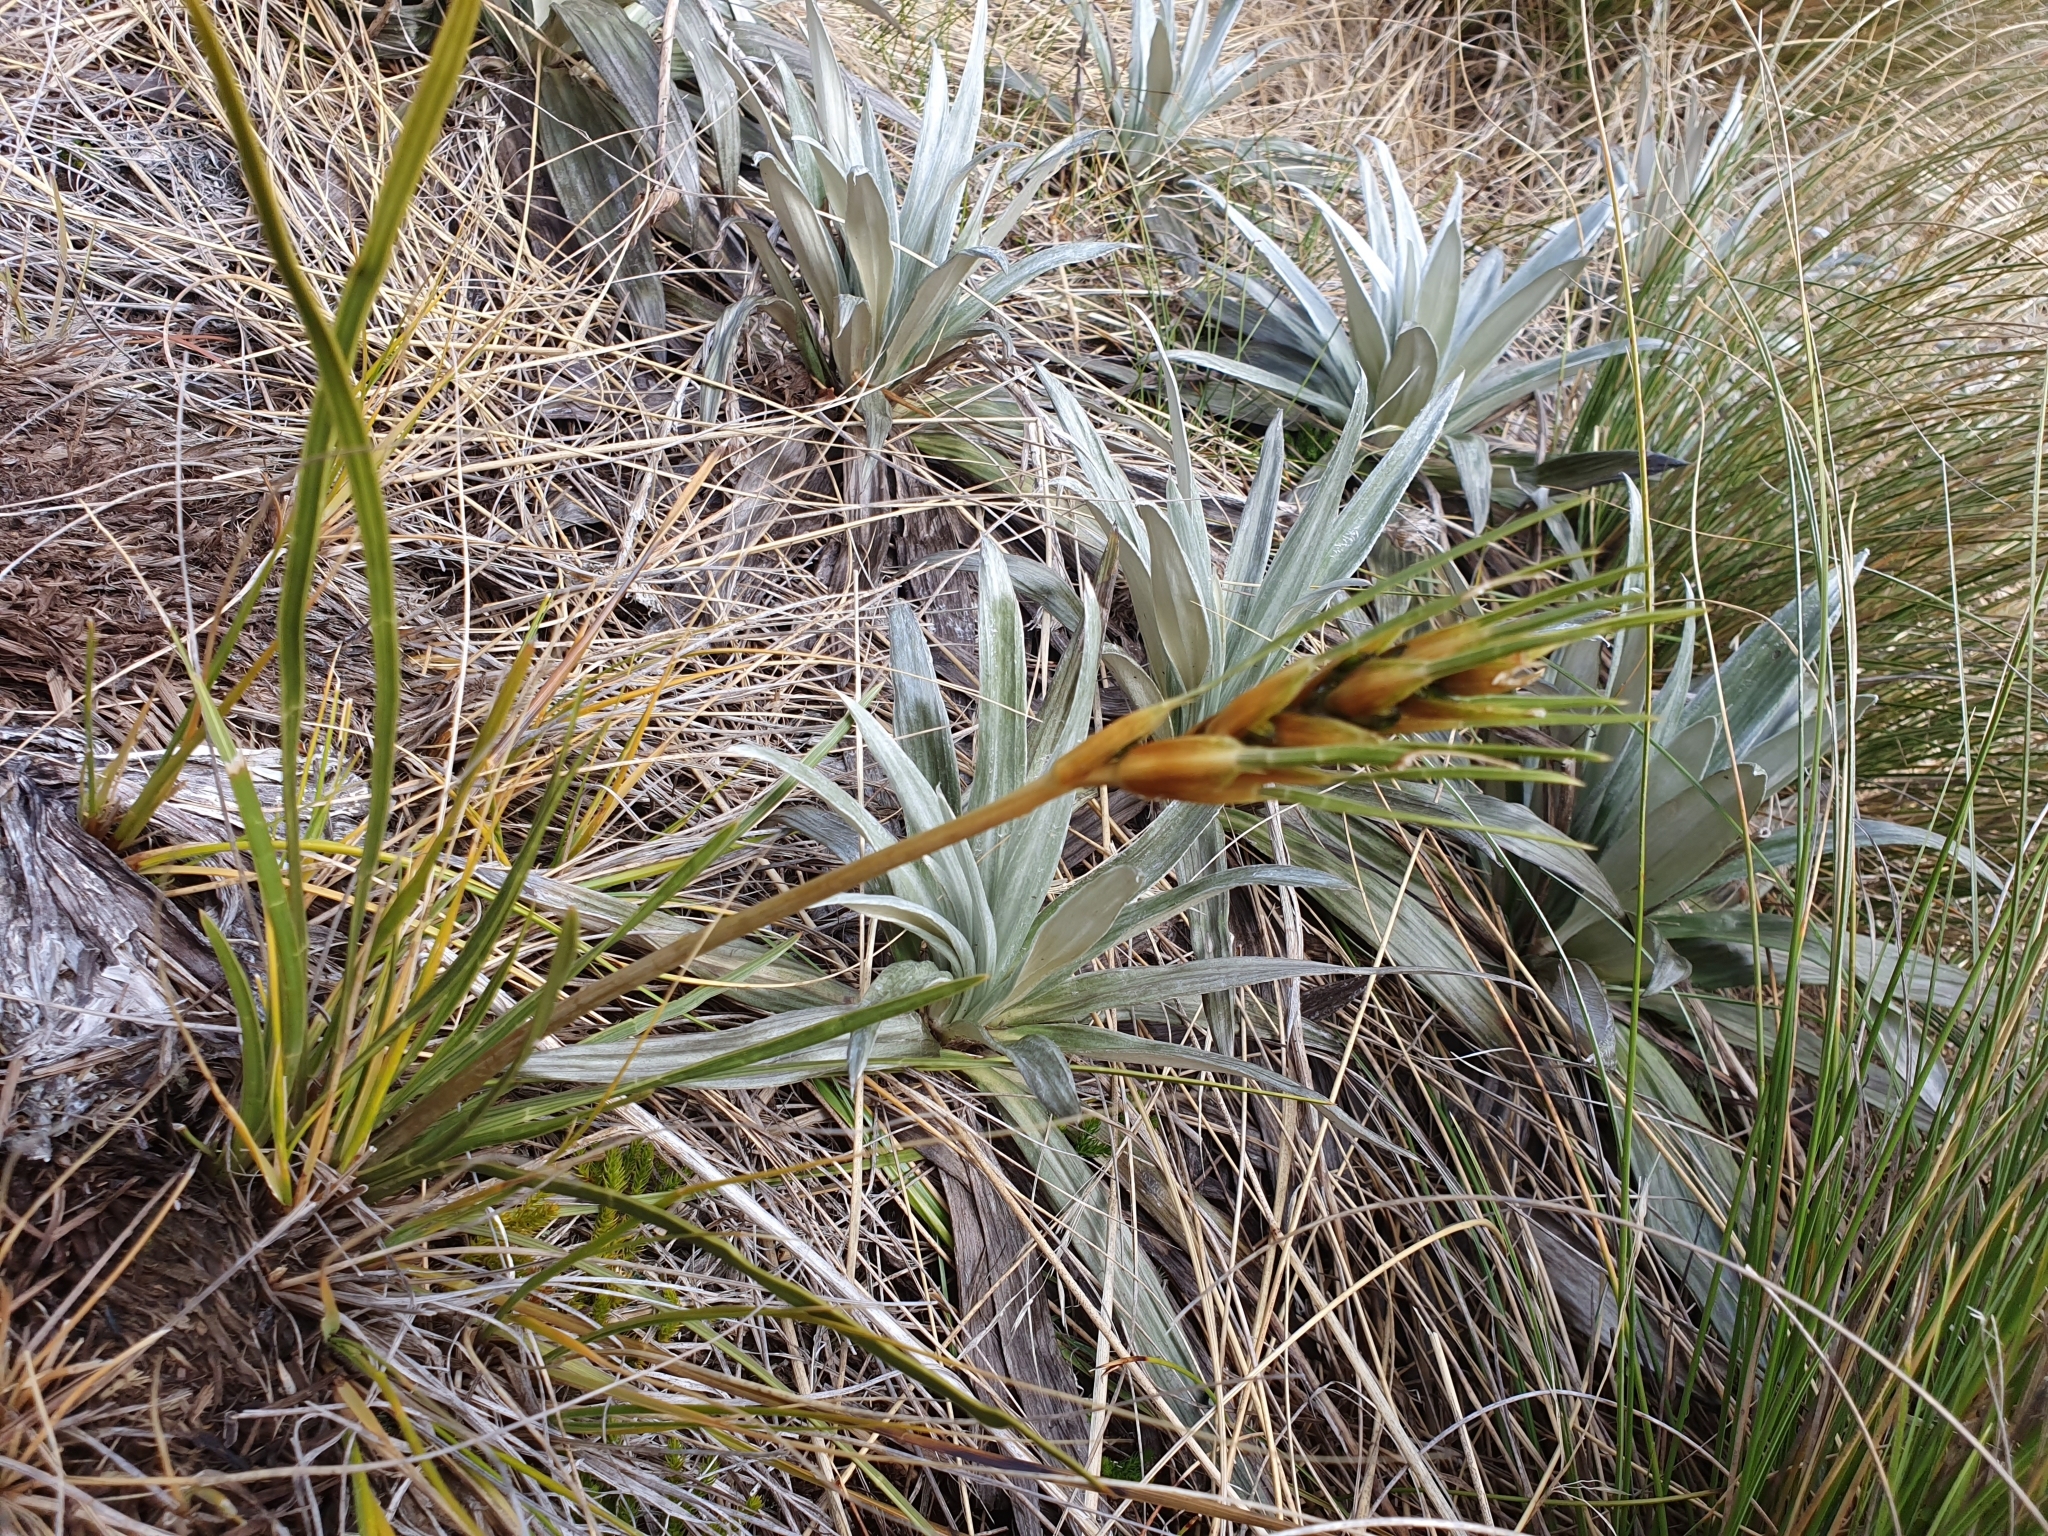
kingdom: Plantae
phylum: Tracheophyta
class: Magnoliopsida
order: Apiales
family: Apiaceae
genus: Aciphylla
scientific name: Aciphylla lyallii
